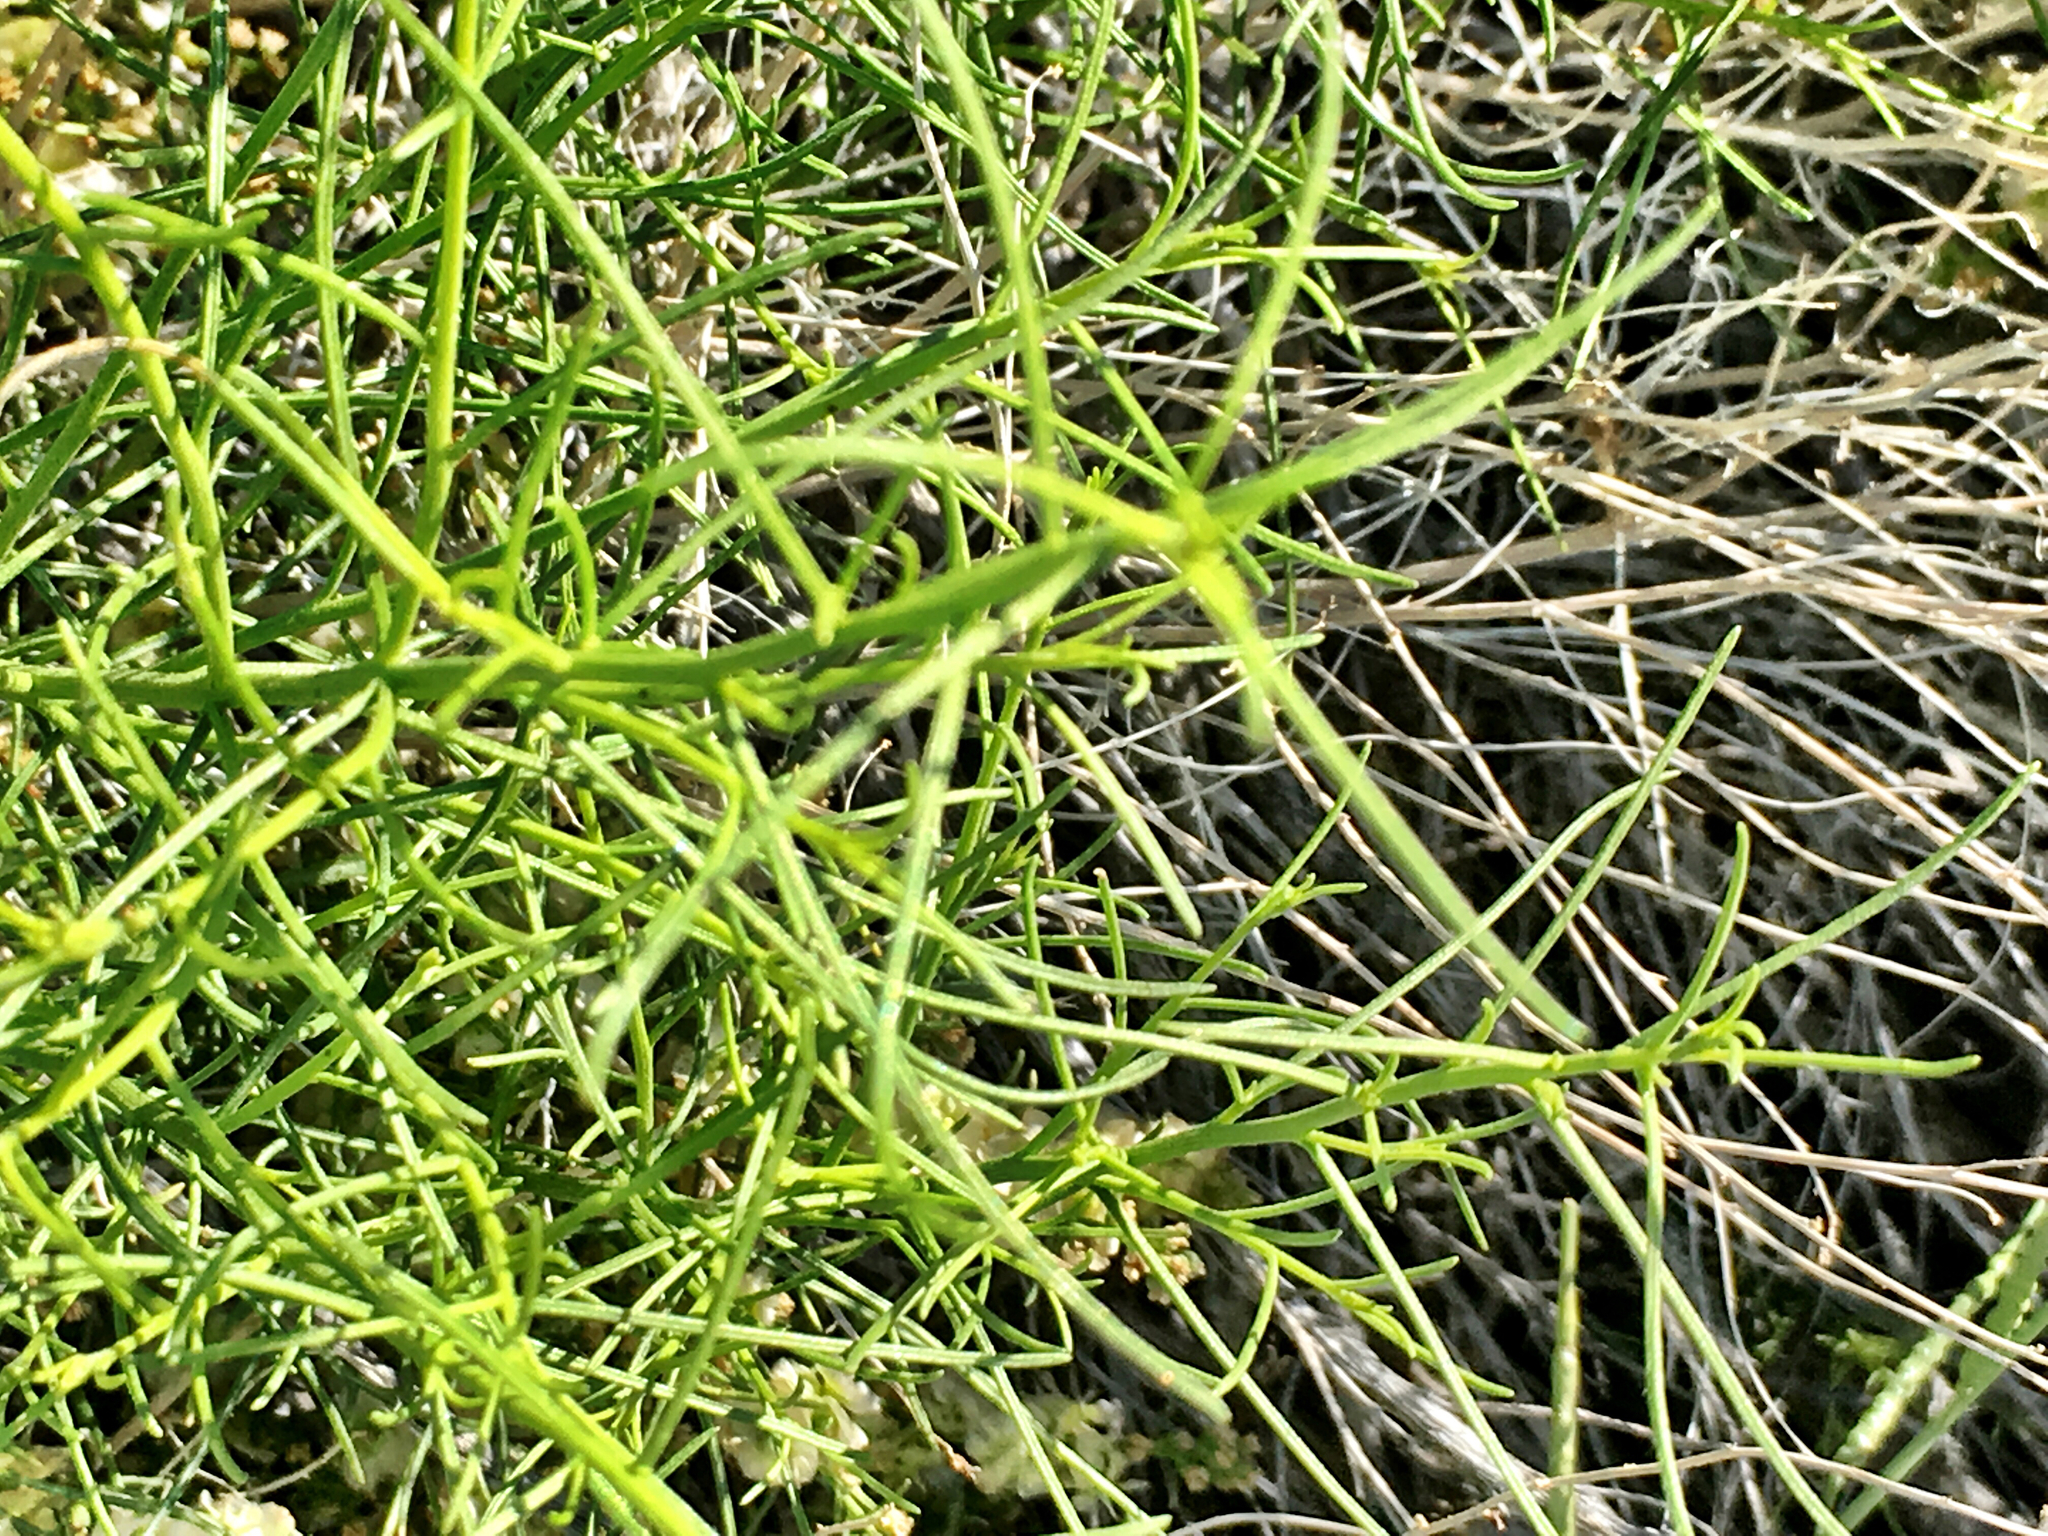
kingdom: Plantae
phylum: Tracheophyta
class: Magnoliopsida
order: Asterales
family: Asteraceae
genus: Ambrosia
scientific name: Ambrosia salsola
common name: Burrobrush
